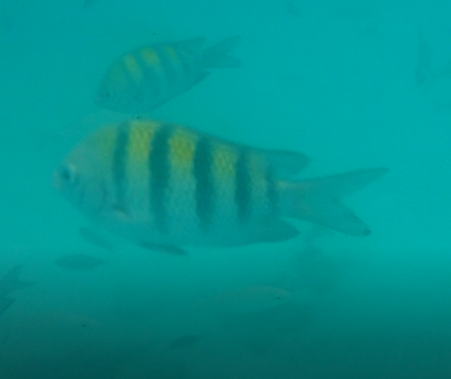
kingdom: Animalia
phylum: Chordata
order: Perciformes
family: Pomacentridae
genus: Abudefduf
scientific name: Abudefduf saxatilis
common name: Sergeant major
